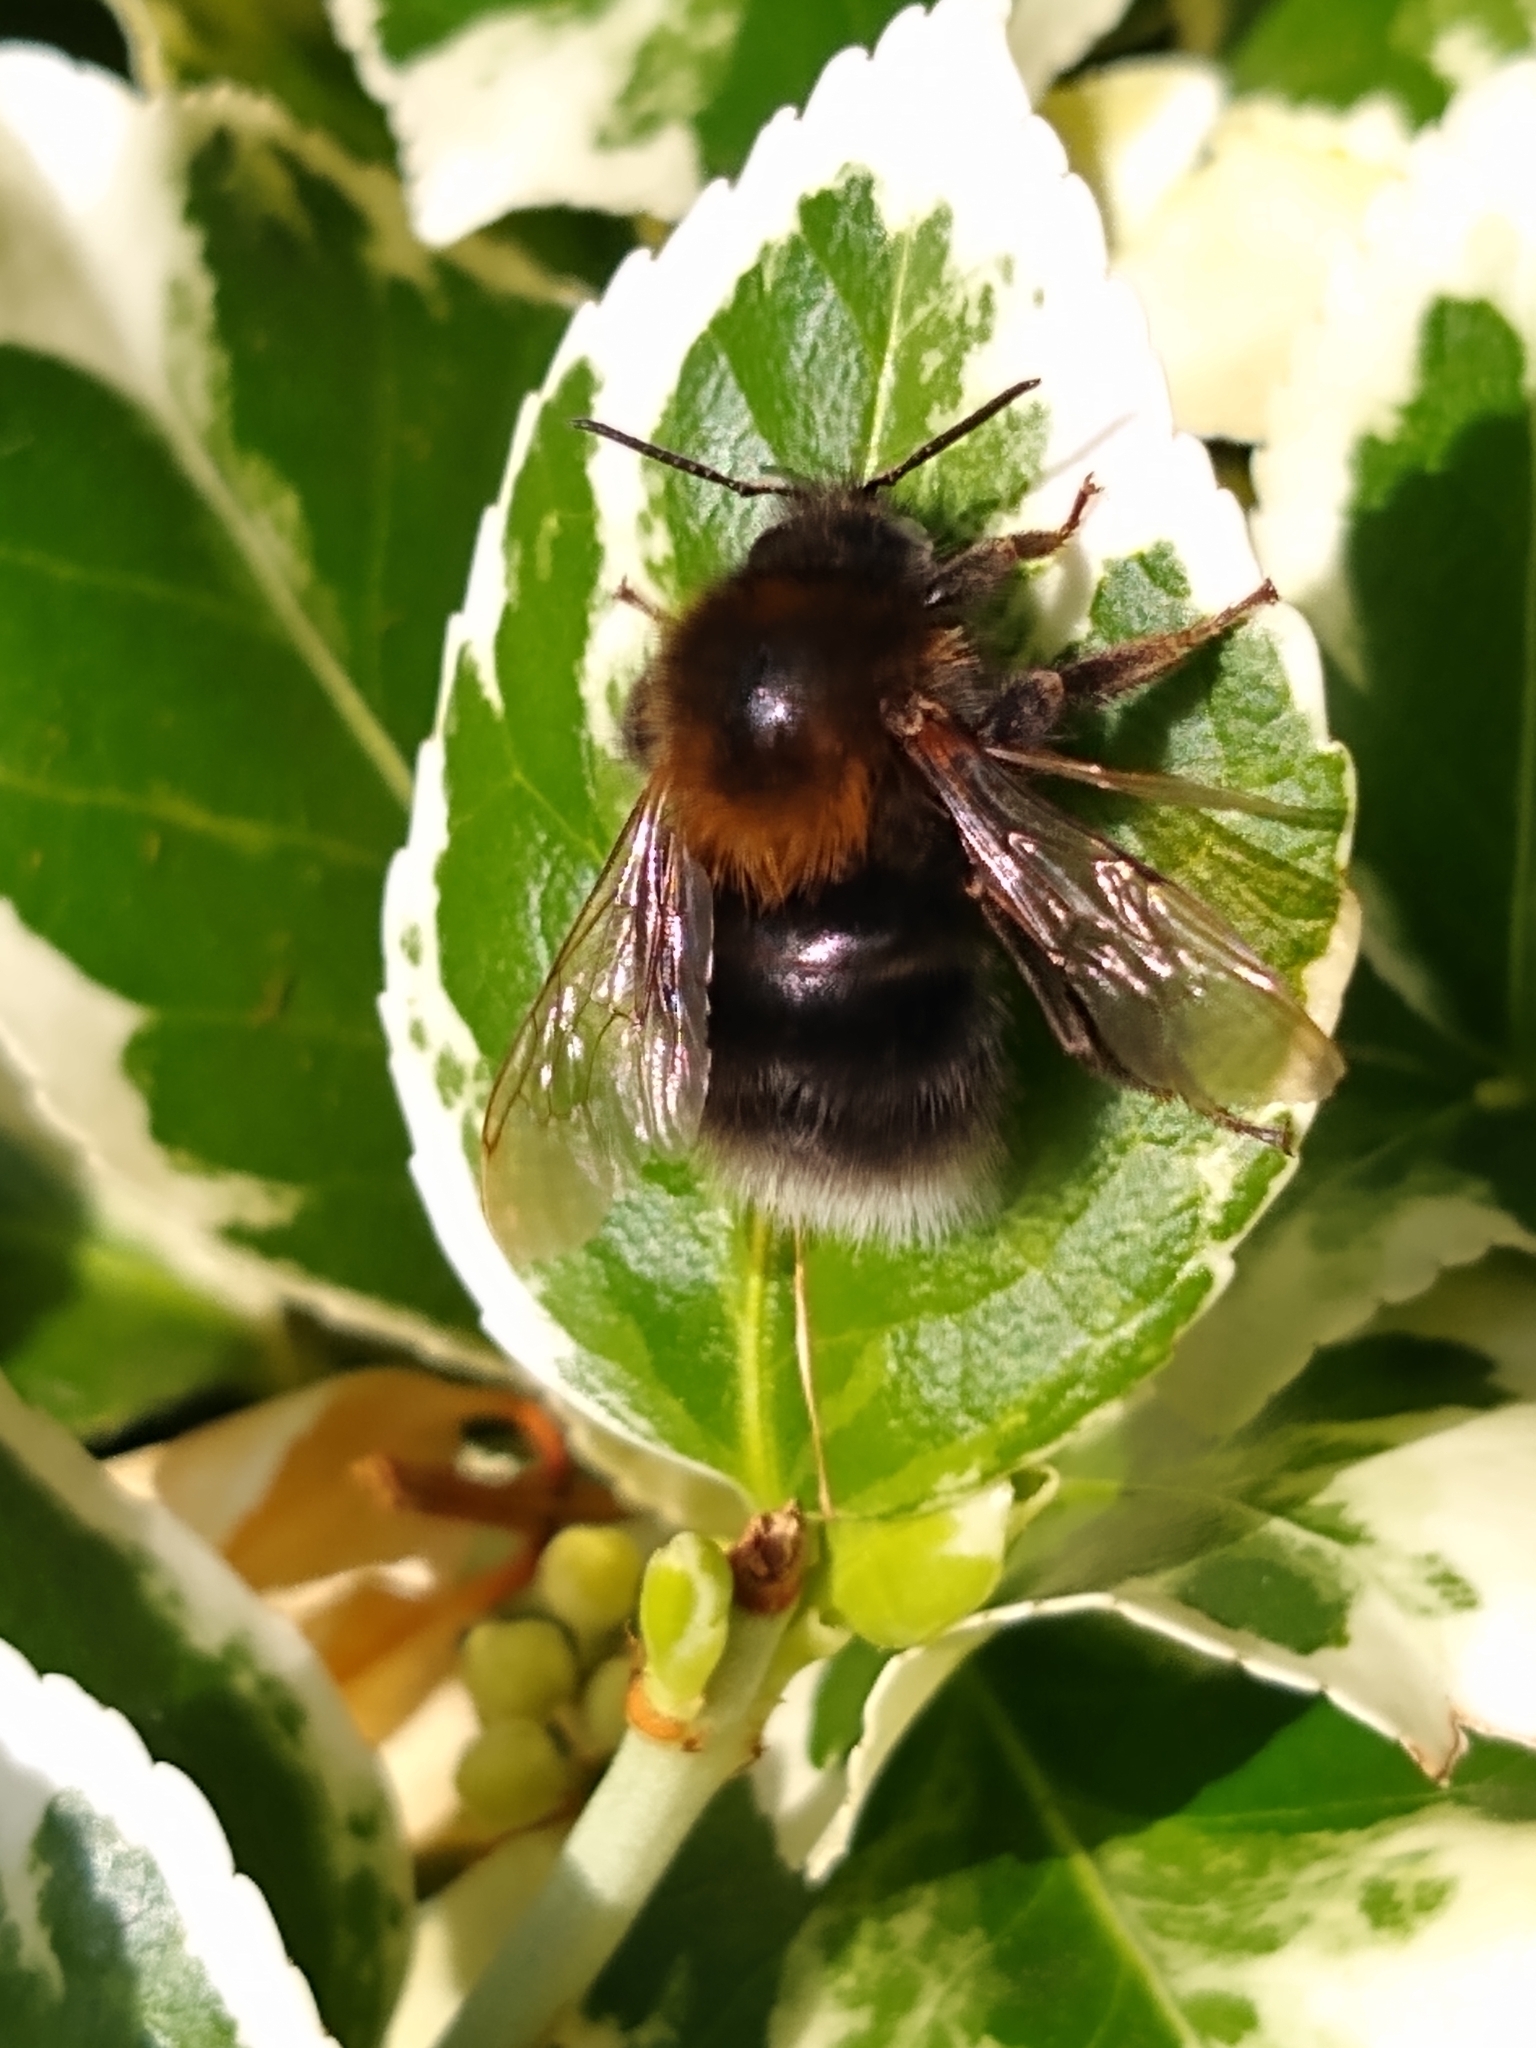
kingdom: Animalia
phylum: Arthropoda
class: Insecta
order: Hymenoptera
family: Apidae
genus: Bombus
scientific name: Bombus hypnorum
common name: New garden bumblebee
